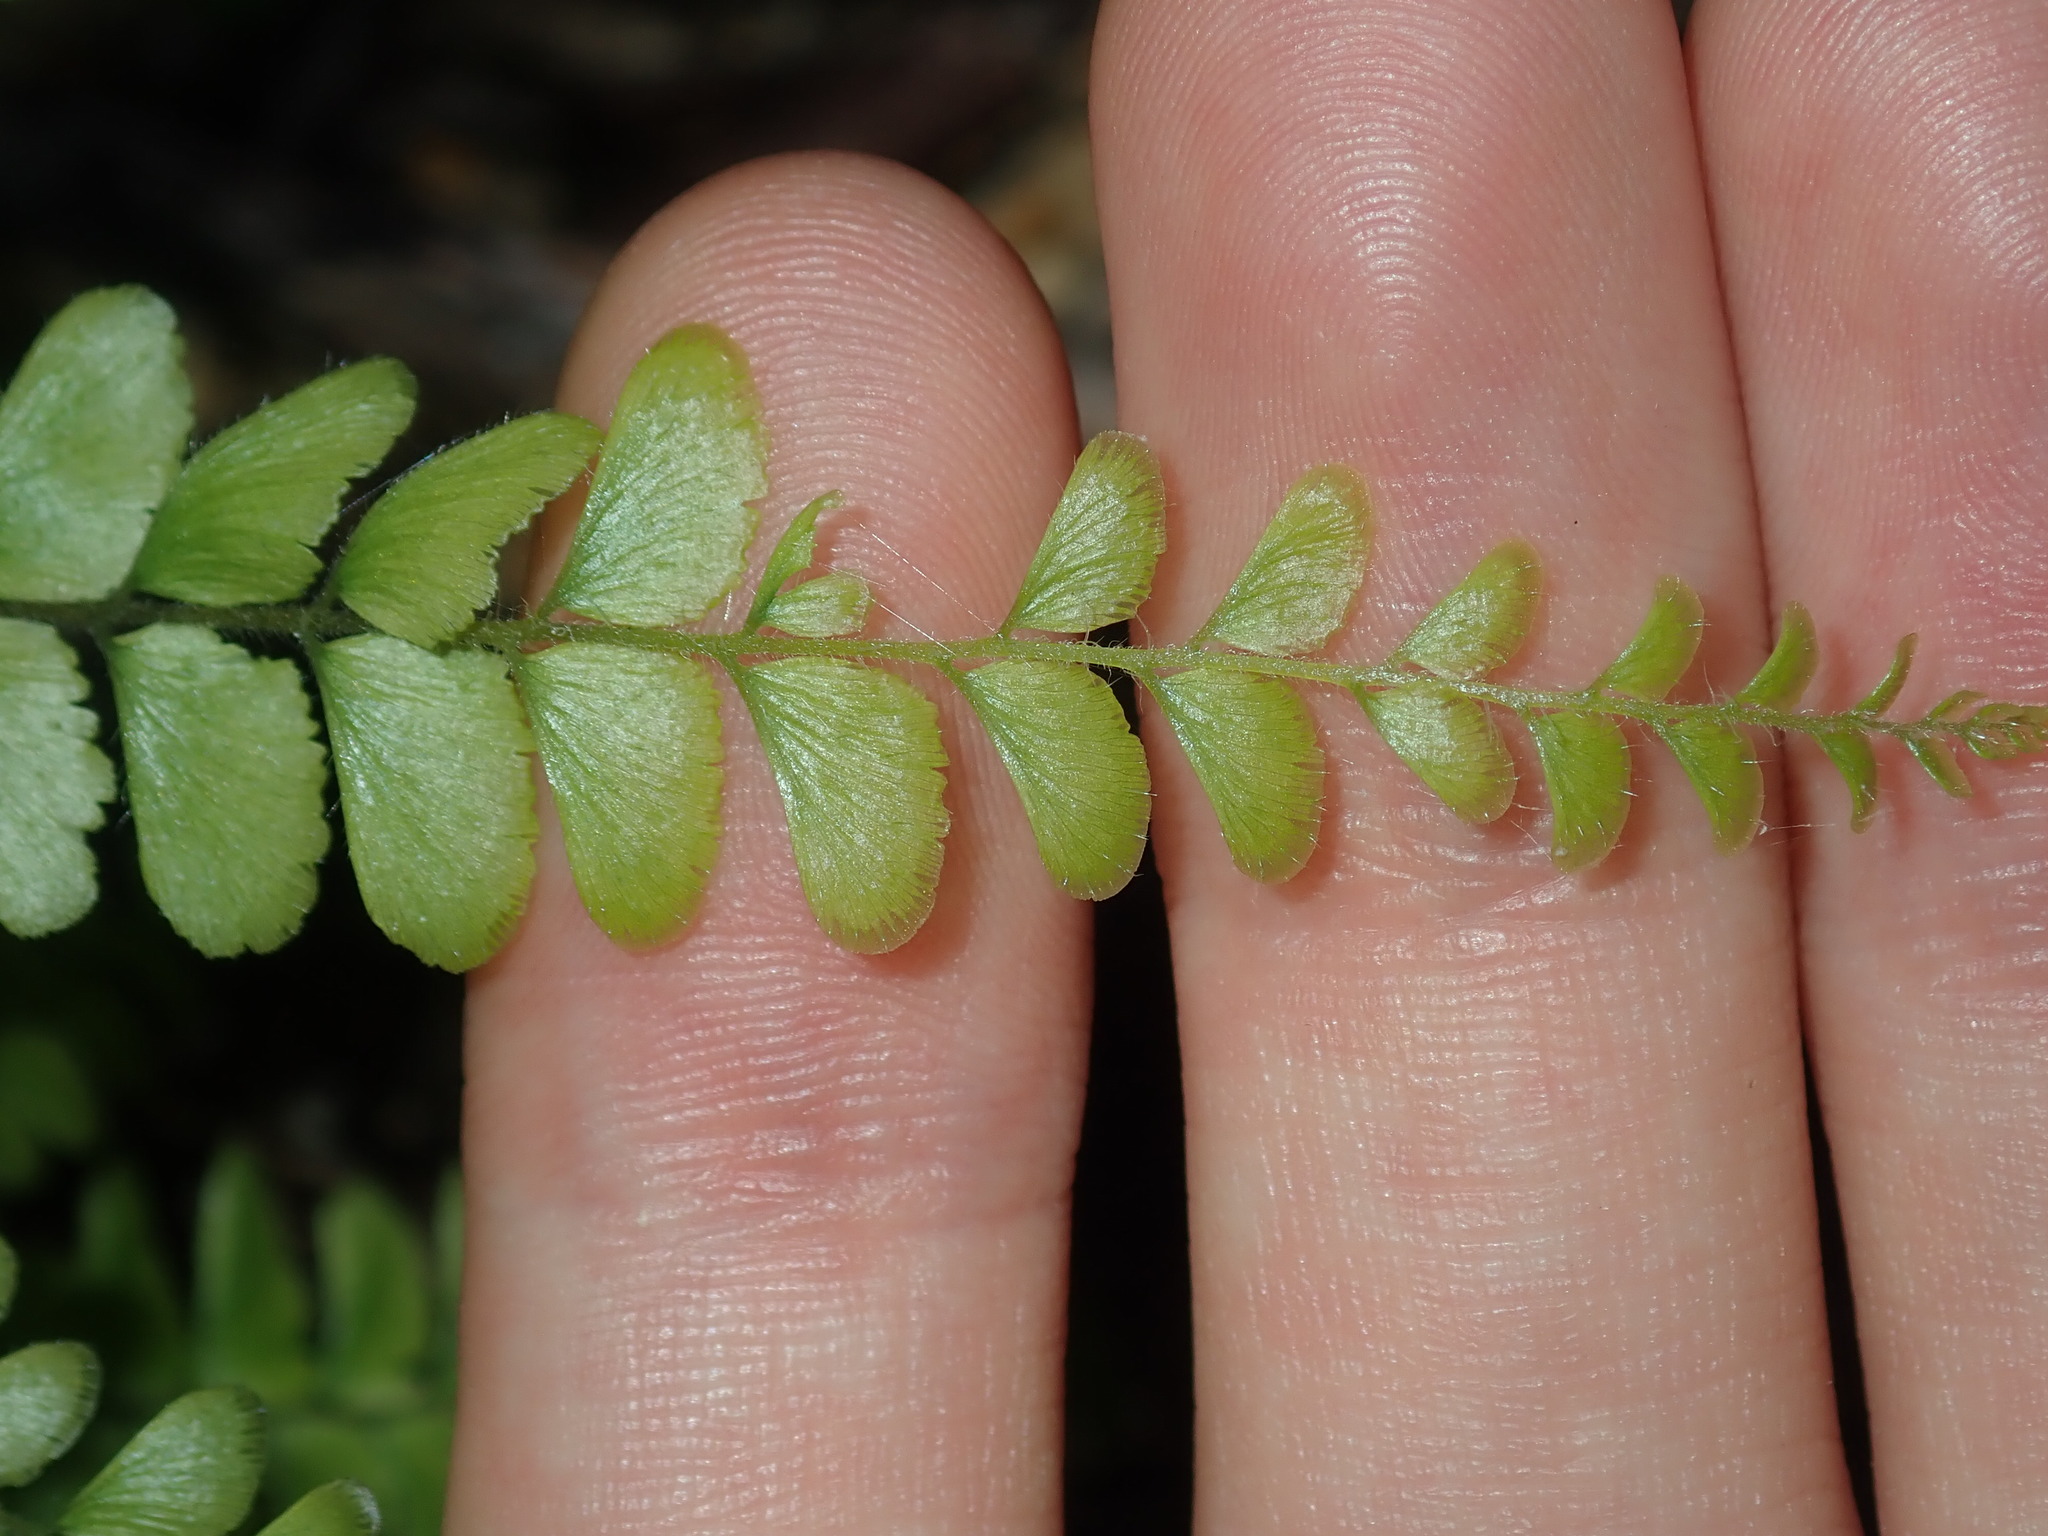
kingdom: Plantae
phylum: Tracheophyta
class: Polypodiopsida
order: Polypodiales
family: Pteridaceae
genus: Adiantum
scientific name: Adiantum hispidulum
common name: Rough maidenhair
